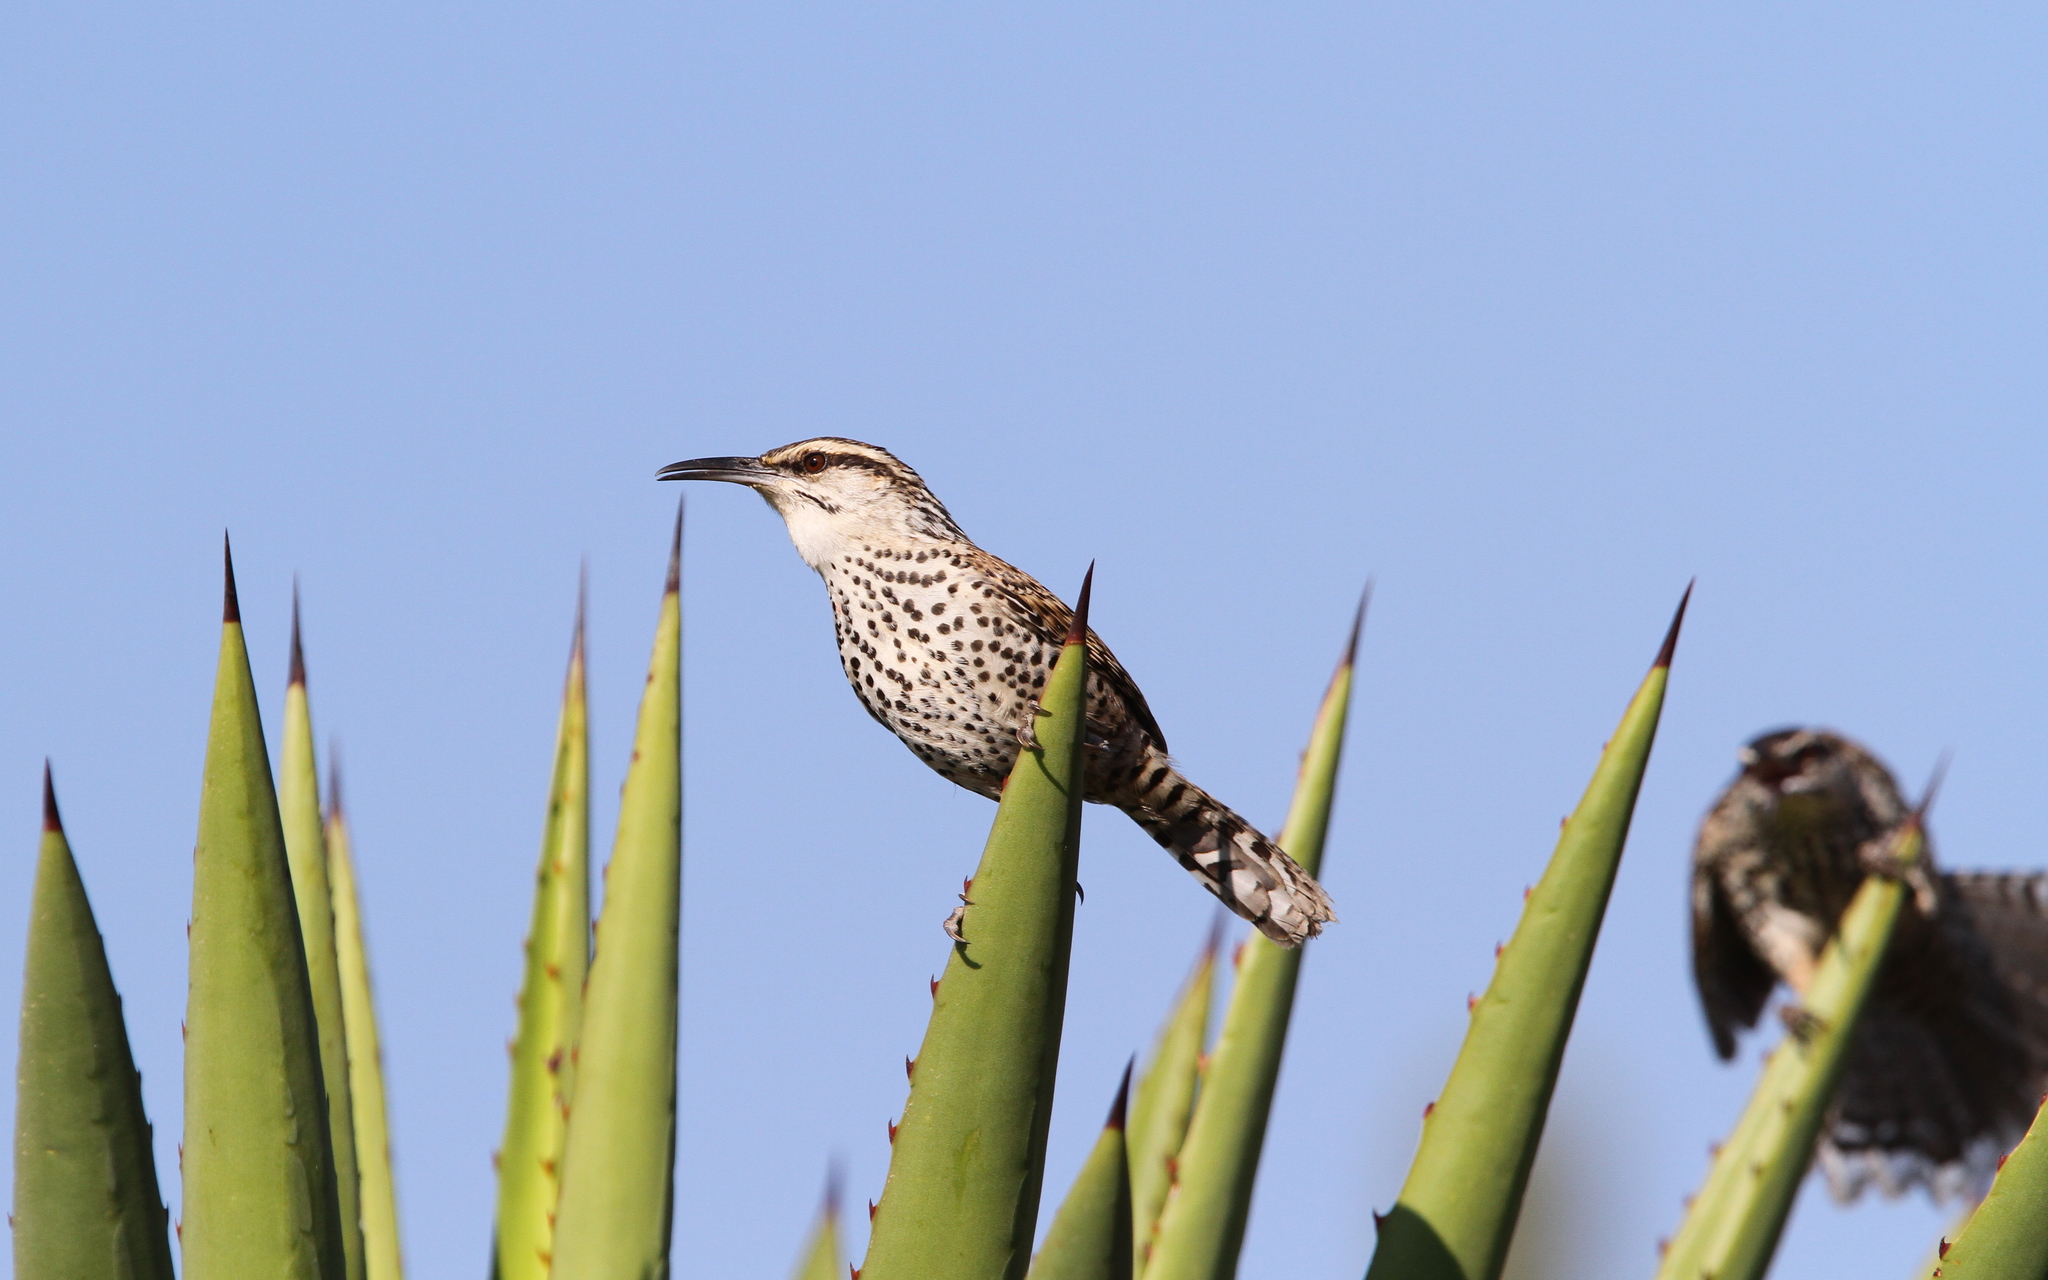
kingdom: Animalia
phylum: Chordata
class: Aves
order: Passeriformes
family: Troglodytidae
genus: Campylorhynchus
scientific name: Campylorhynchus jocosus
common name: Boucard's wren
